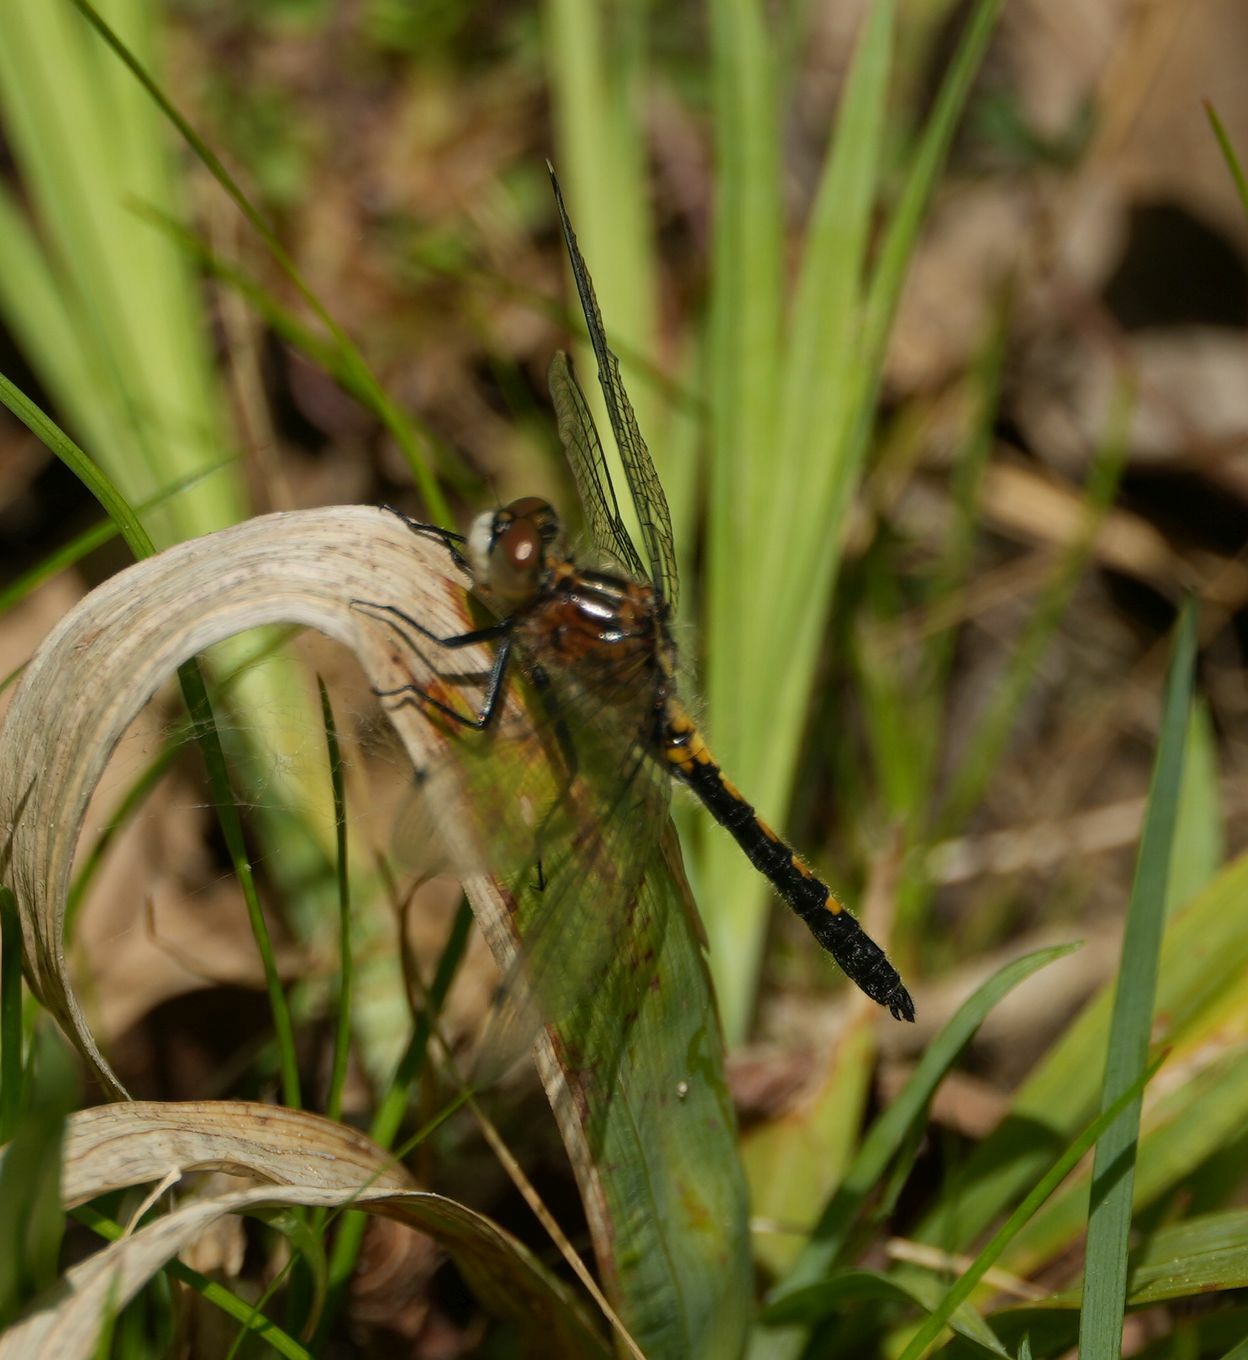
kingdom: Animalia
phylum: Arthropoda
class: Insecta
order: Odonata
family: Libellulidae
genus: Leucorrhinia
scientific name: Leucorrhinia intacta
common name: Dot-tailed whiteface
